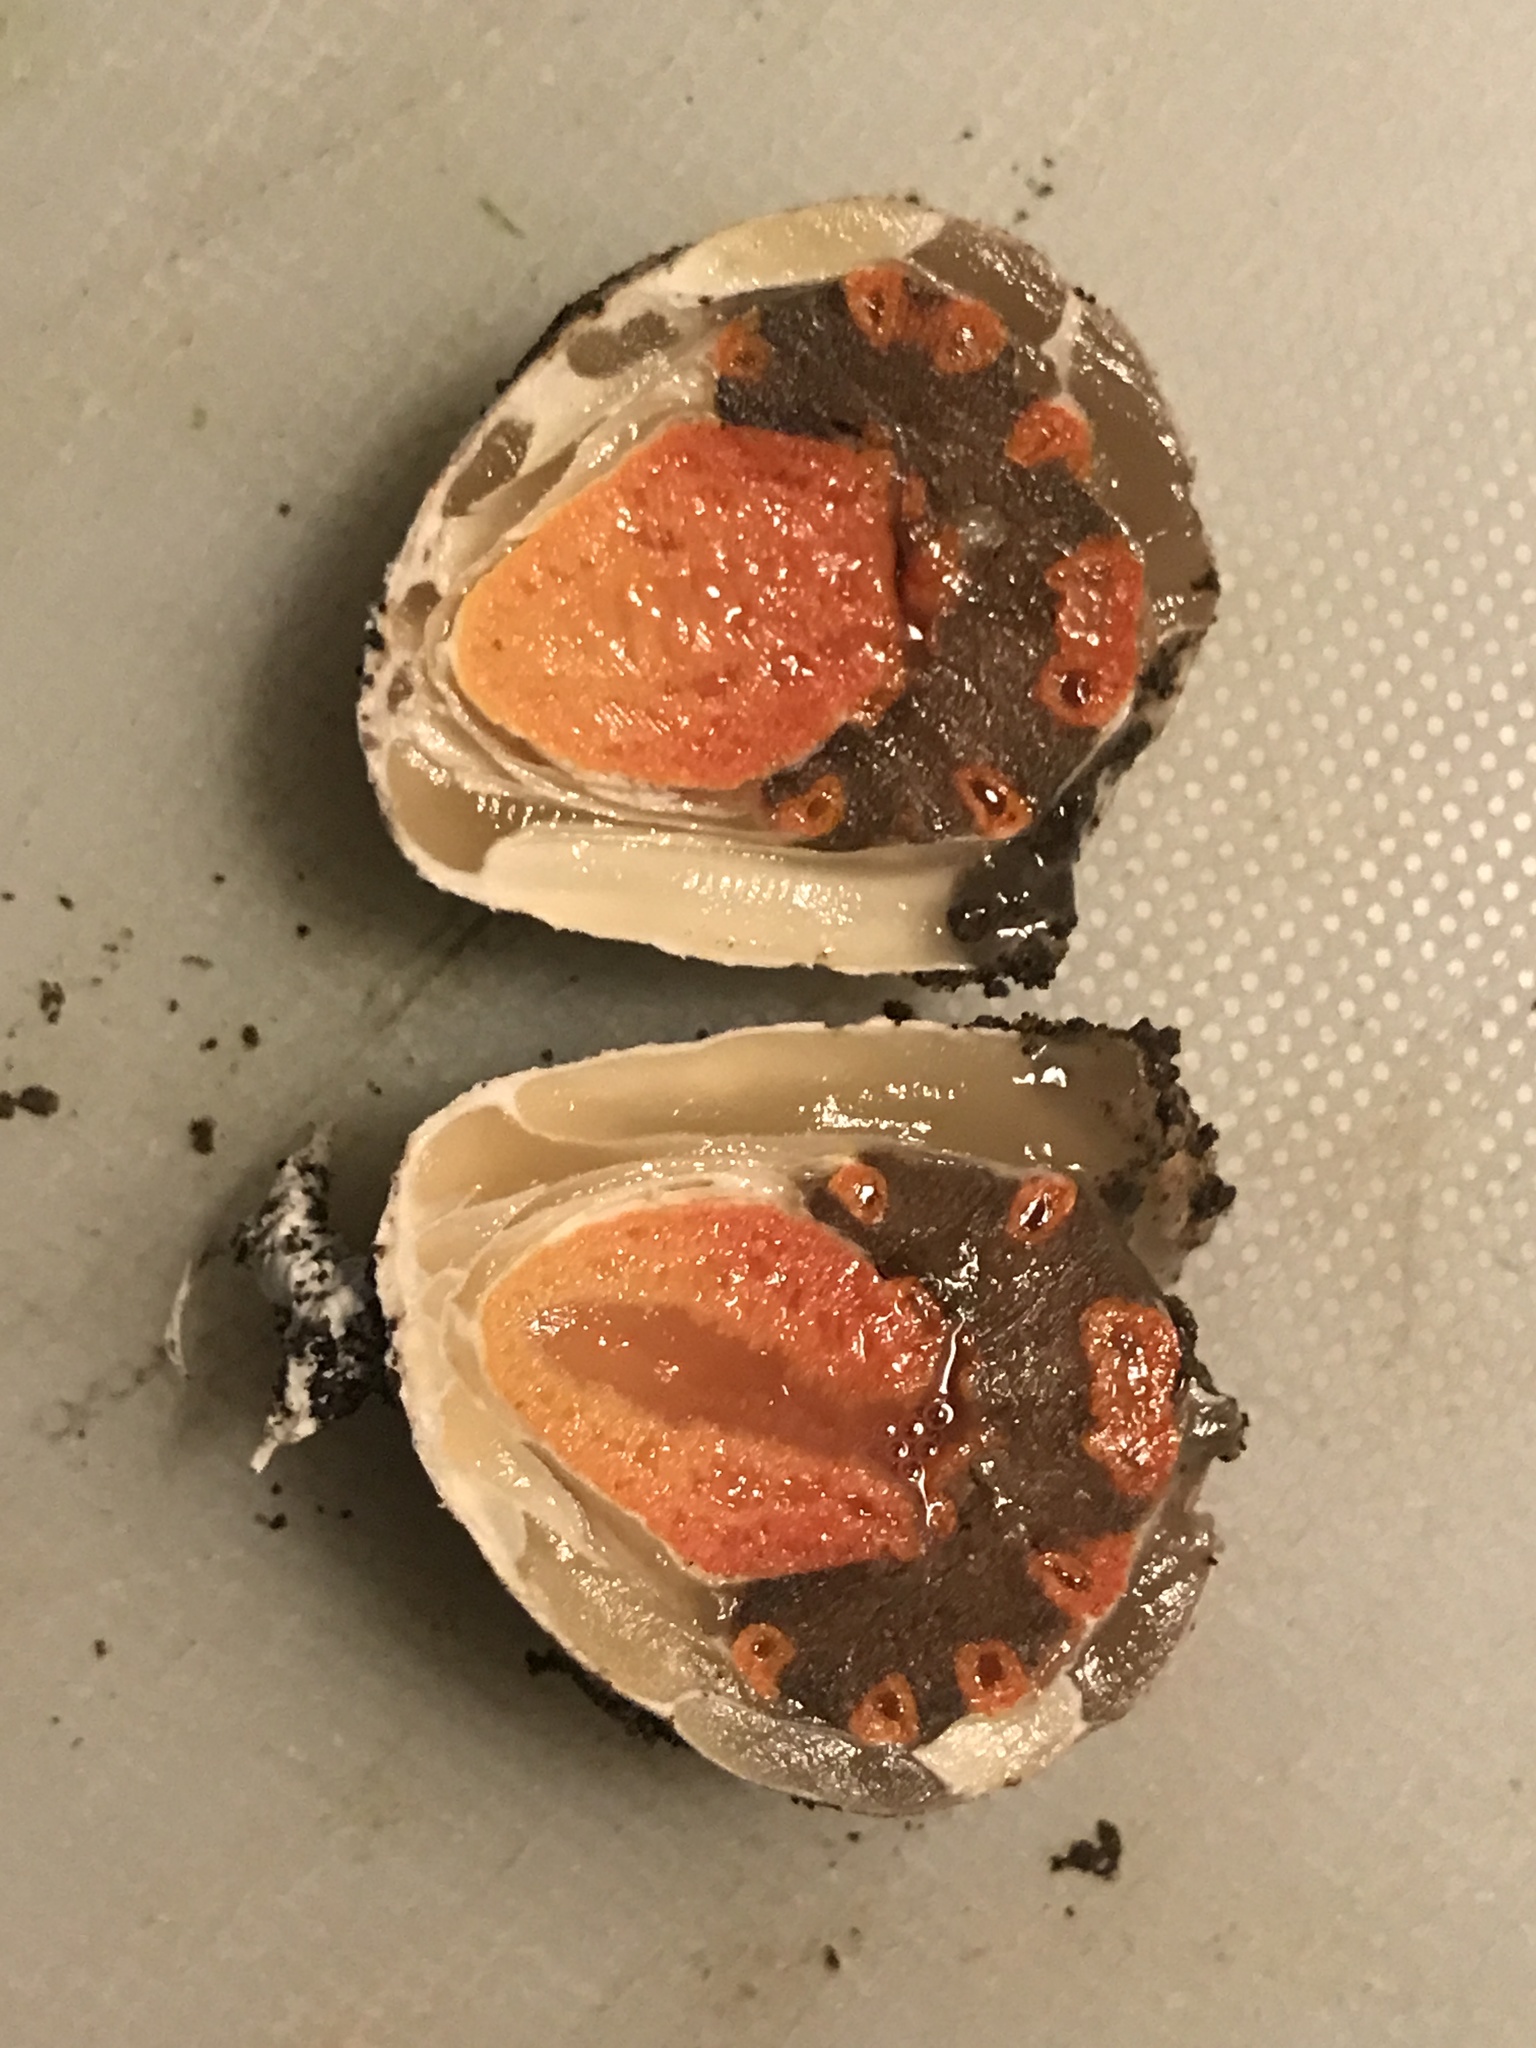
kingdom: Fungi
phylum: Basidiomycota
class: Agaricomycetes
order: Phallales
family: Phallaceae
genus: Lysurus
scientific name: Lysurus periphragmoides
